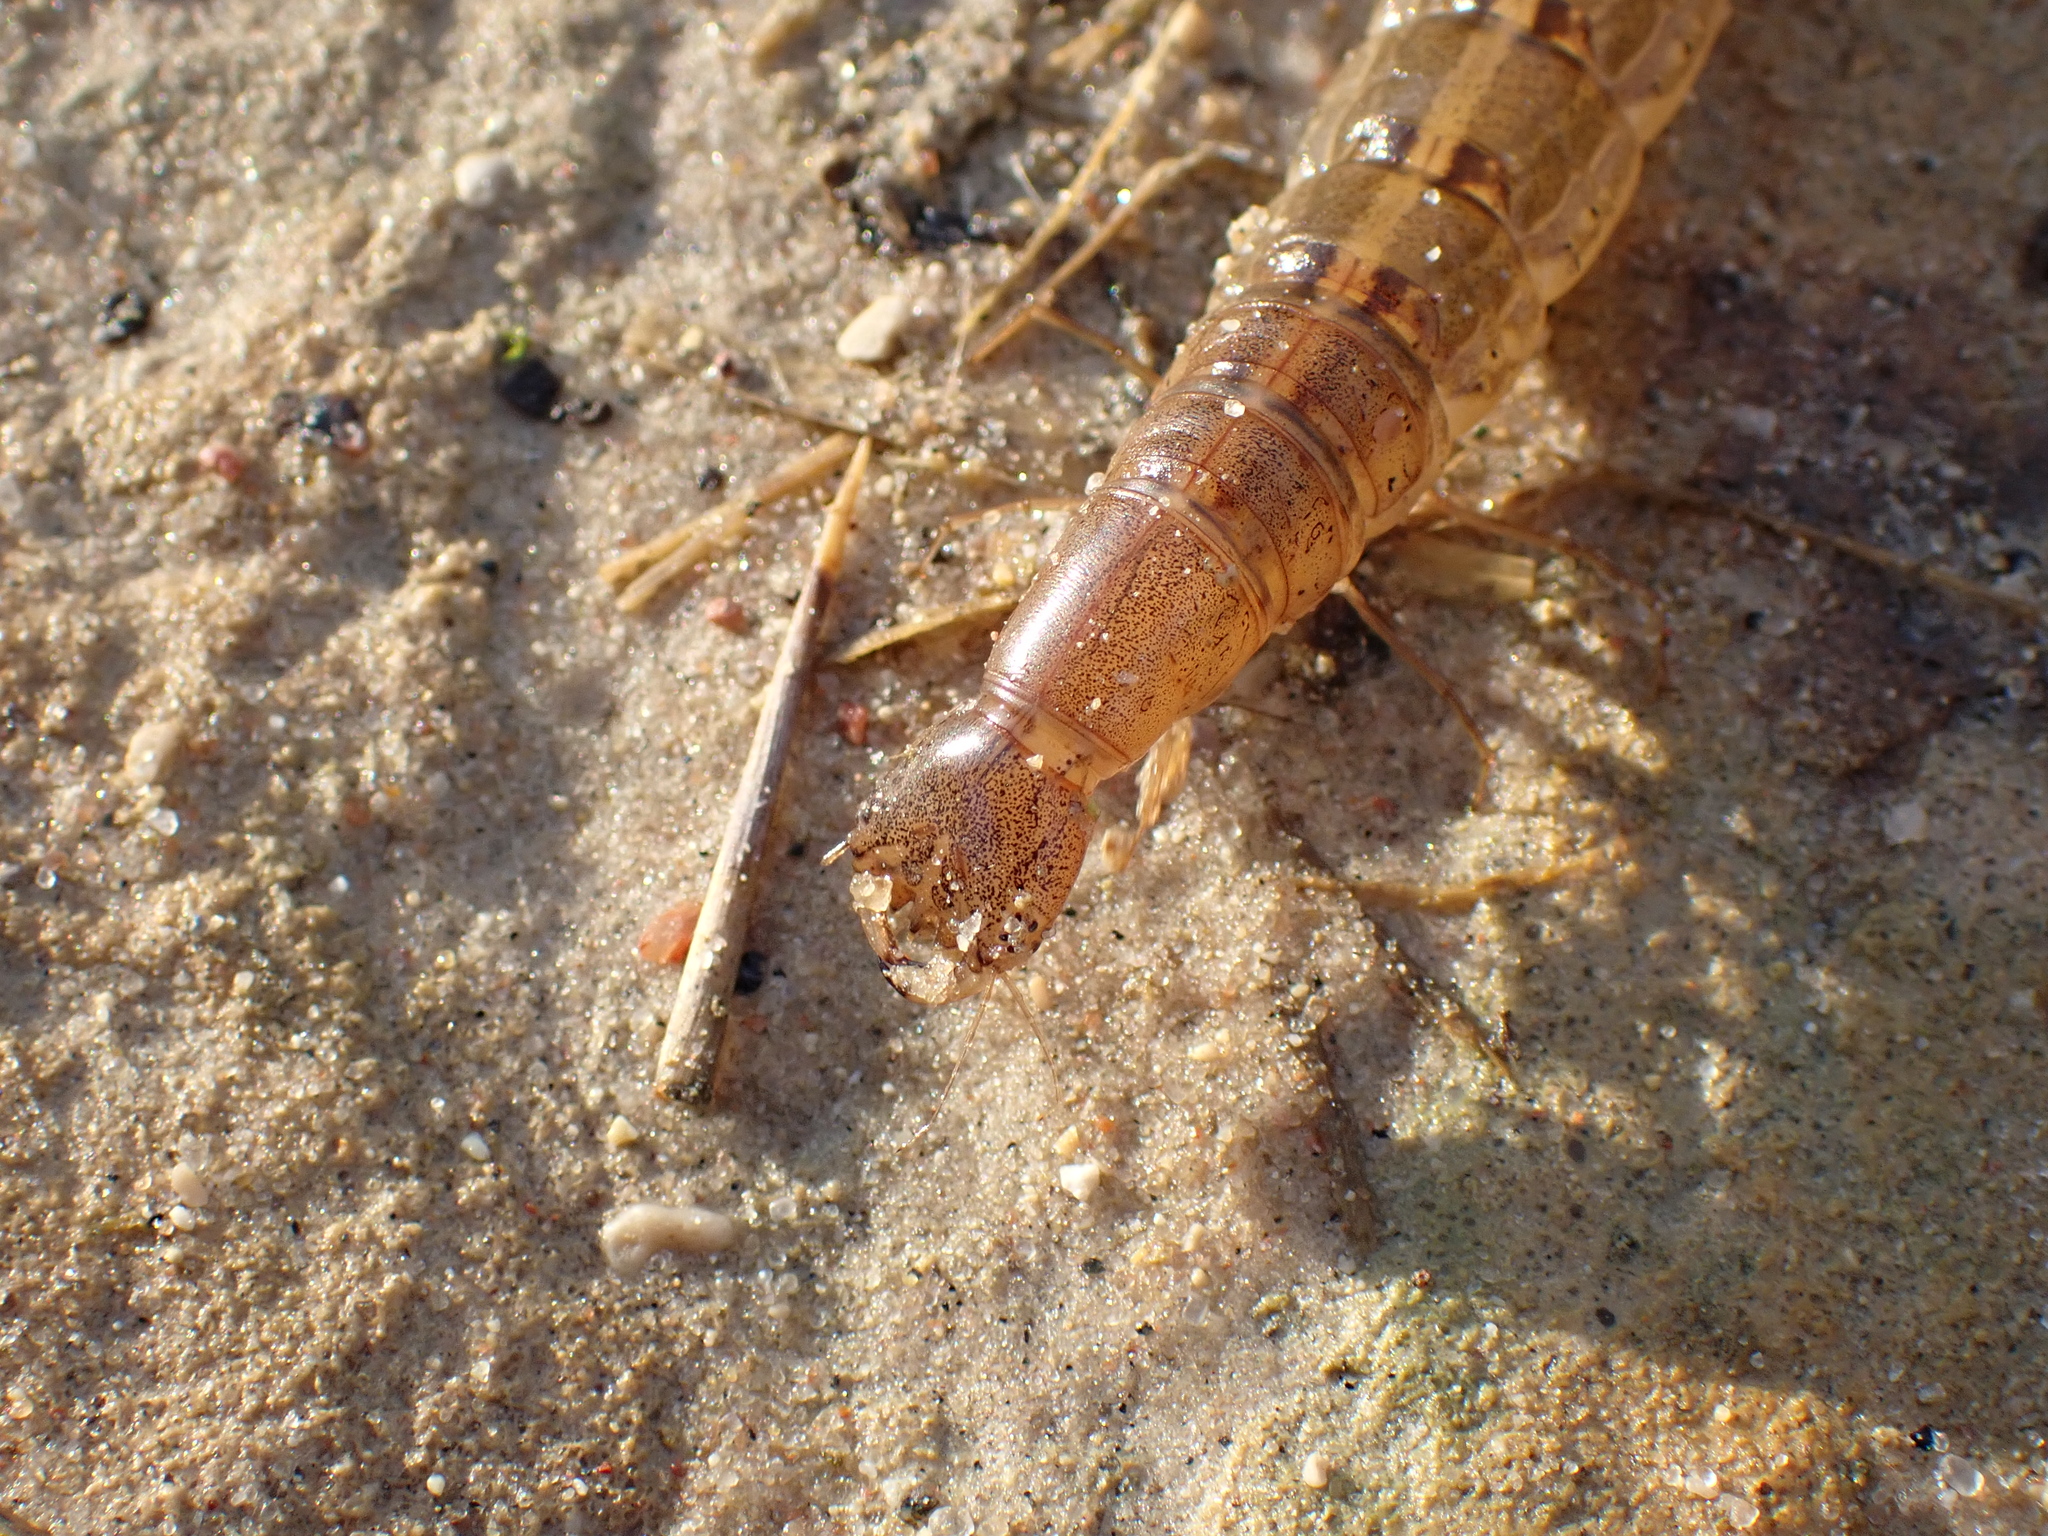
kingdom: Animalia
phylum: Arthropoda
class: Insecta
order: Coleoptera
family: Dytiscidae
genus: Cybister
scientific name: Cybister lateralimarginalis
